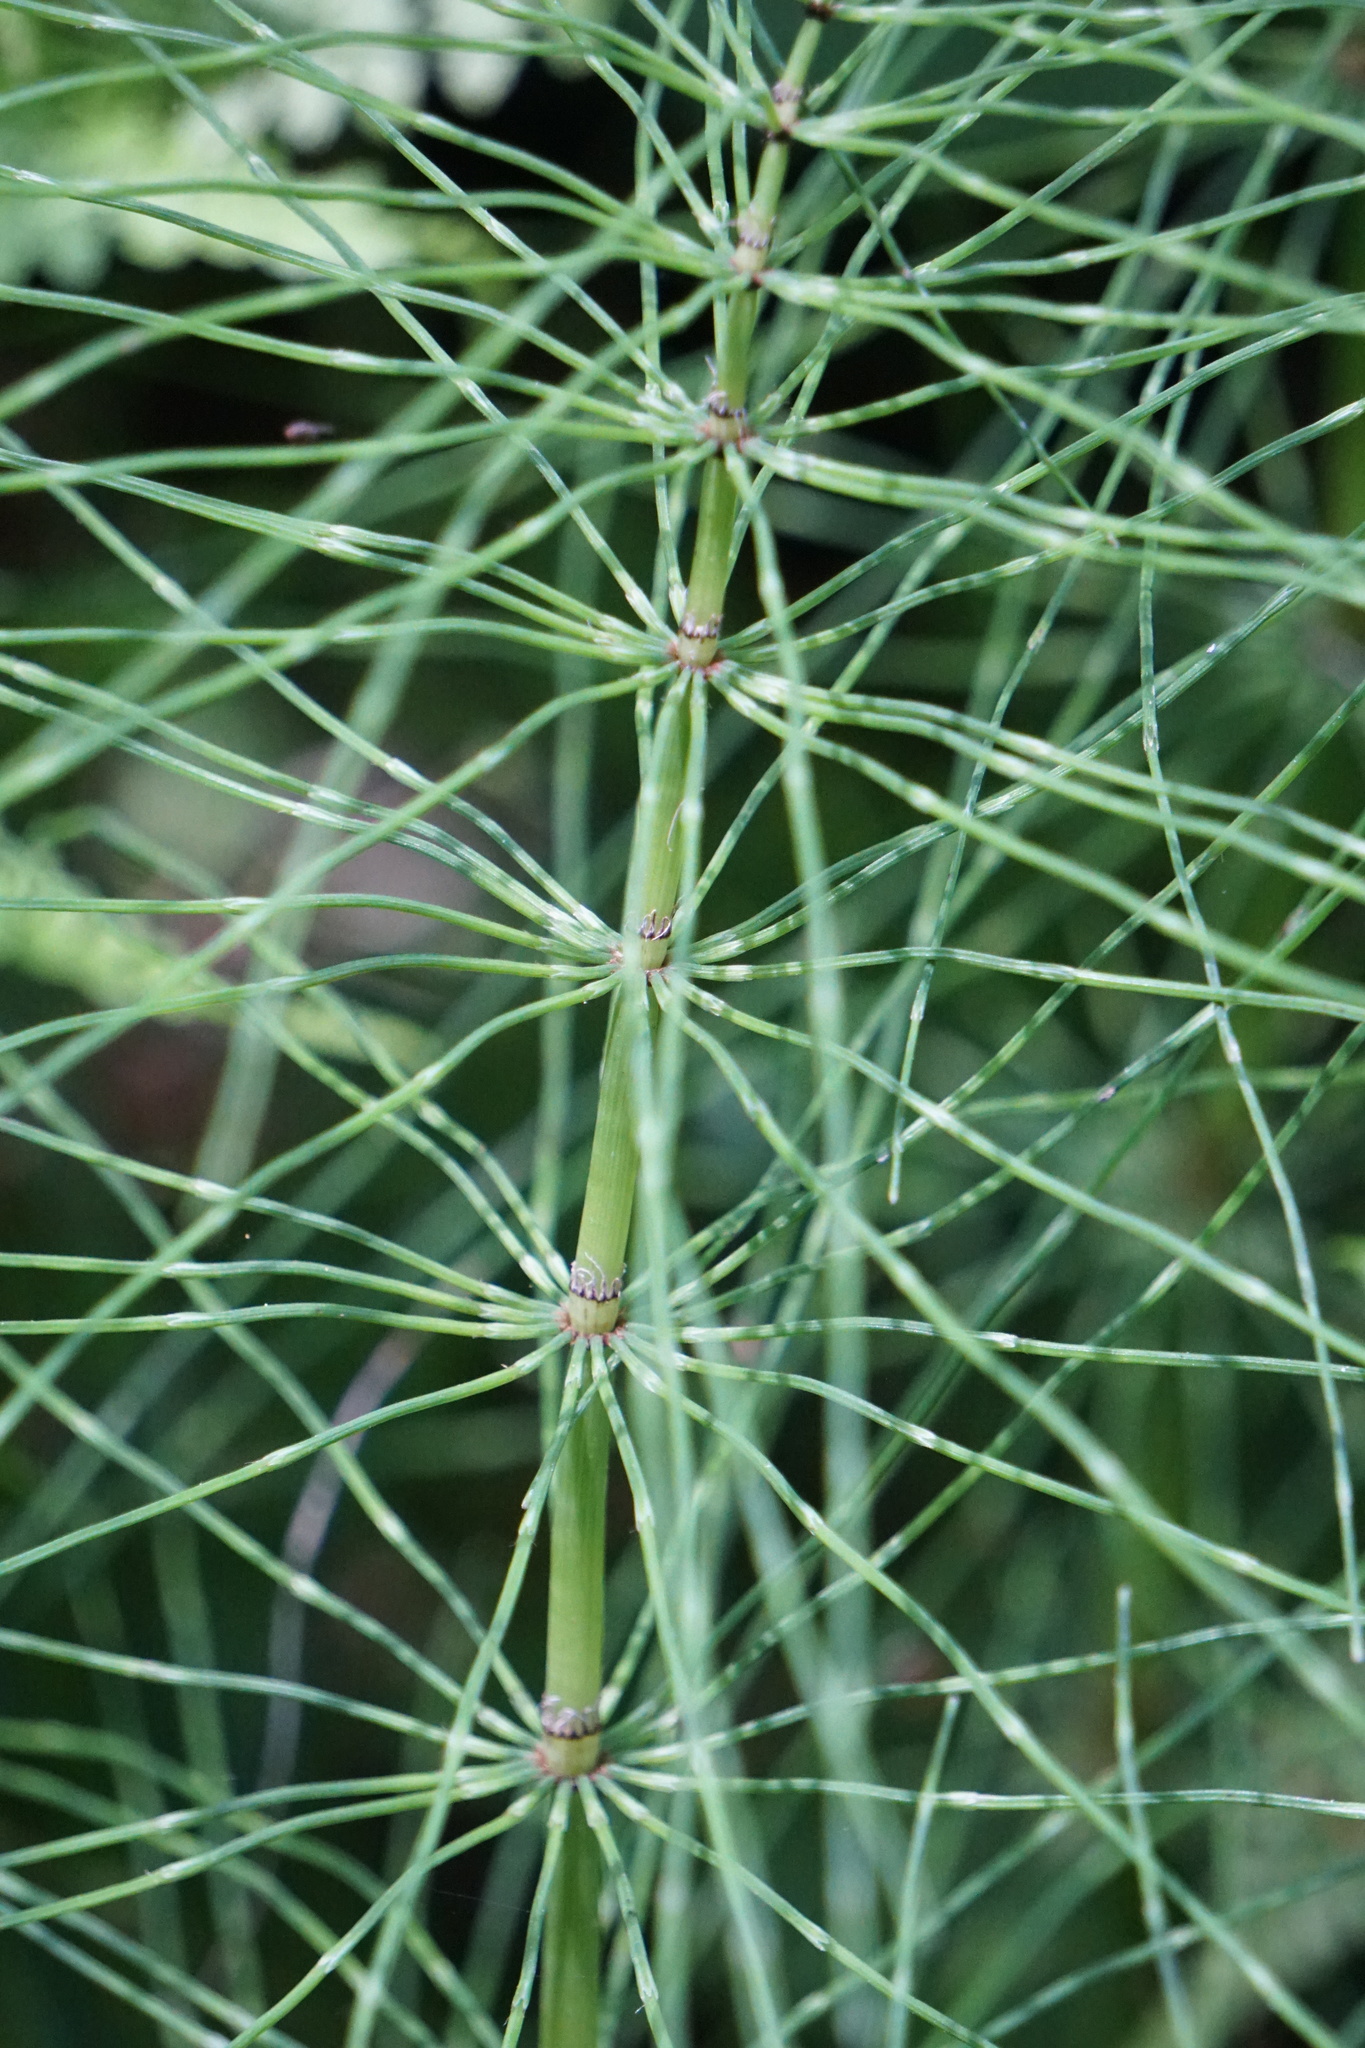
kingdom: Plantae
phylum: Tracheophyta
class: Polypodiopsida
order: Equisetales
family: Equisetaceae
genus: Equisetum
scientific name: Equisetum telmateia
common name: Great horsetail
